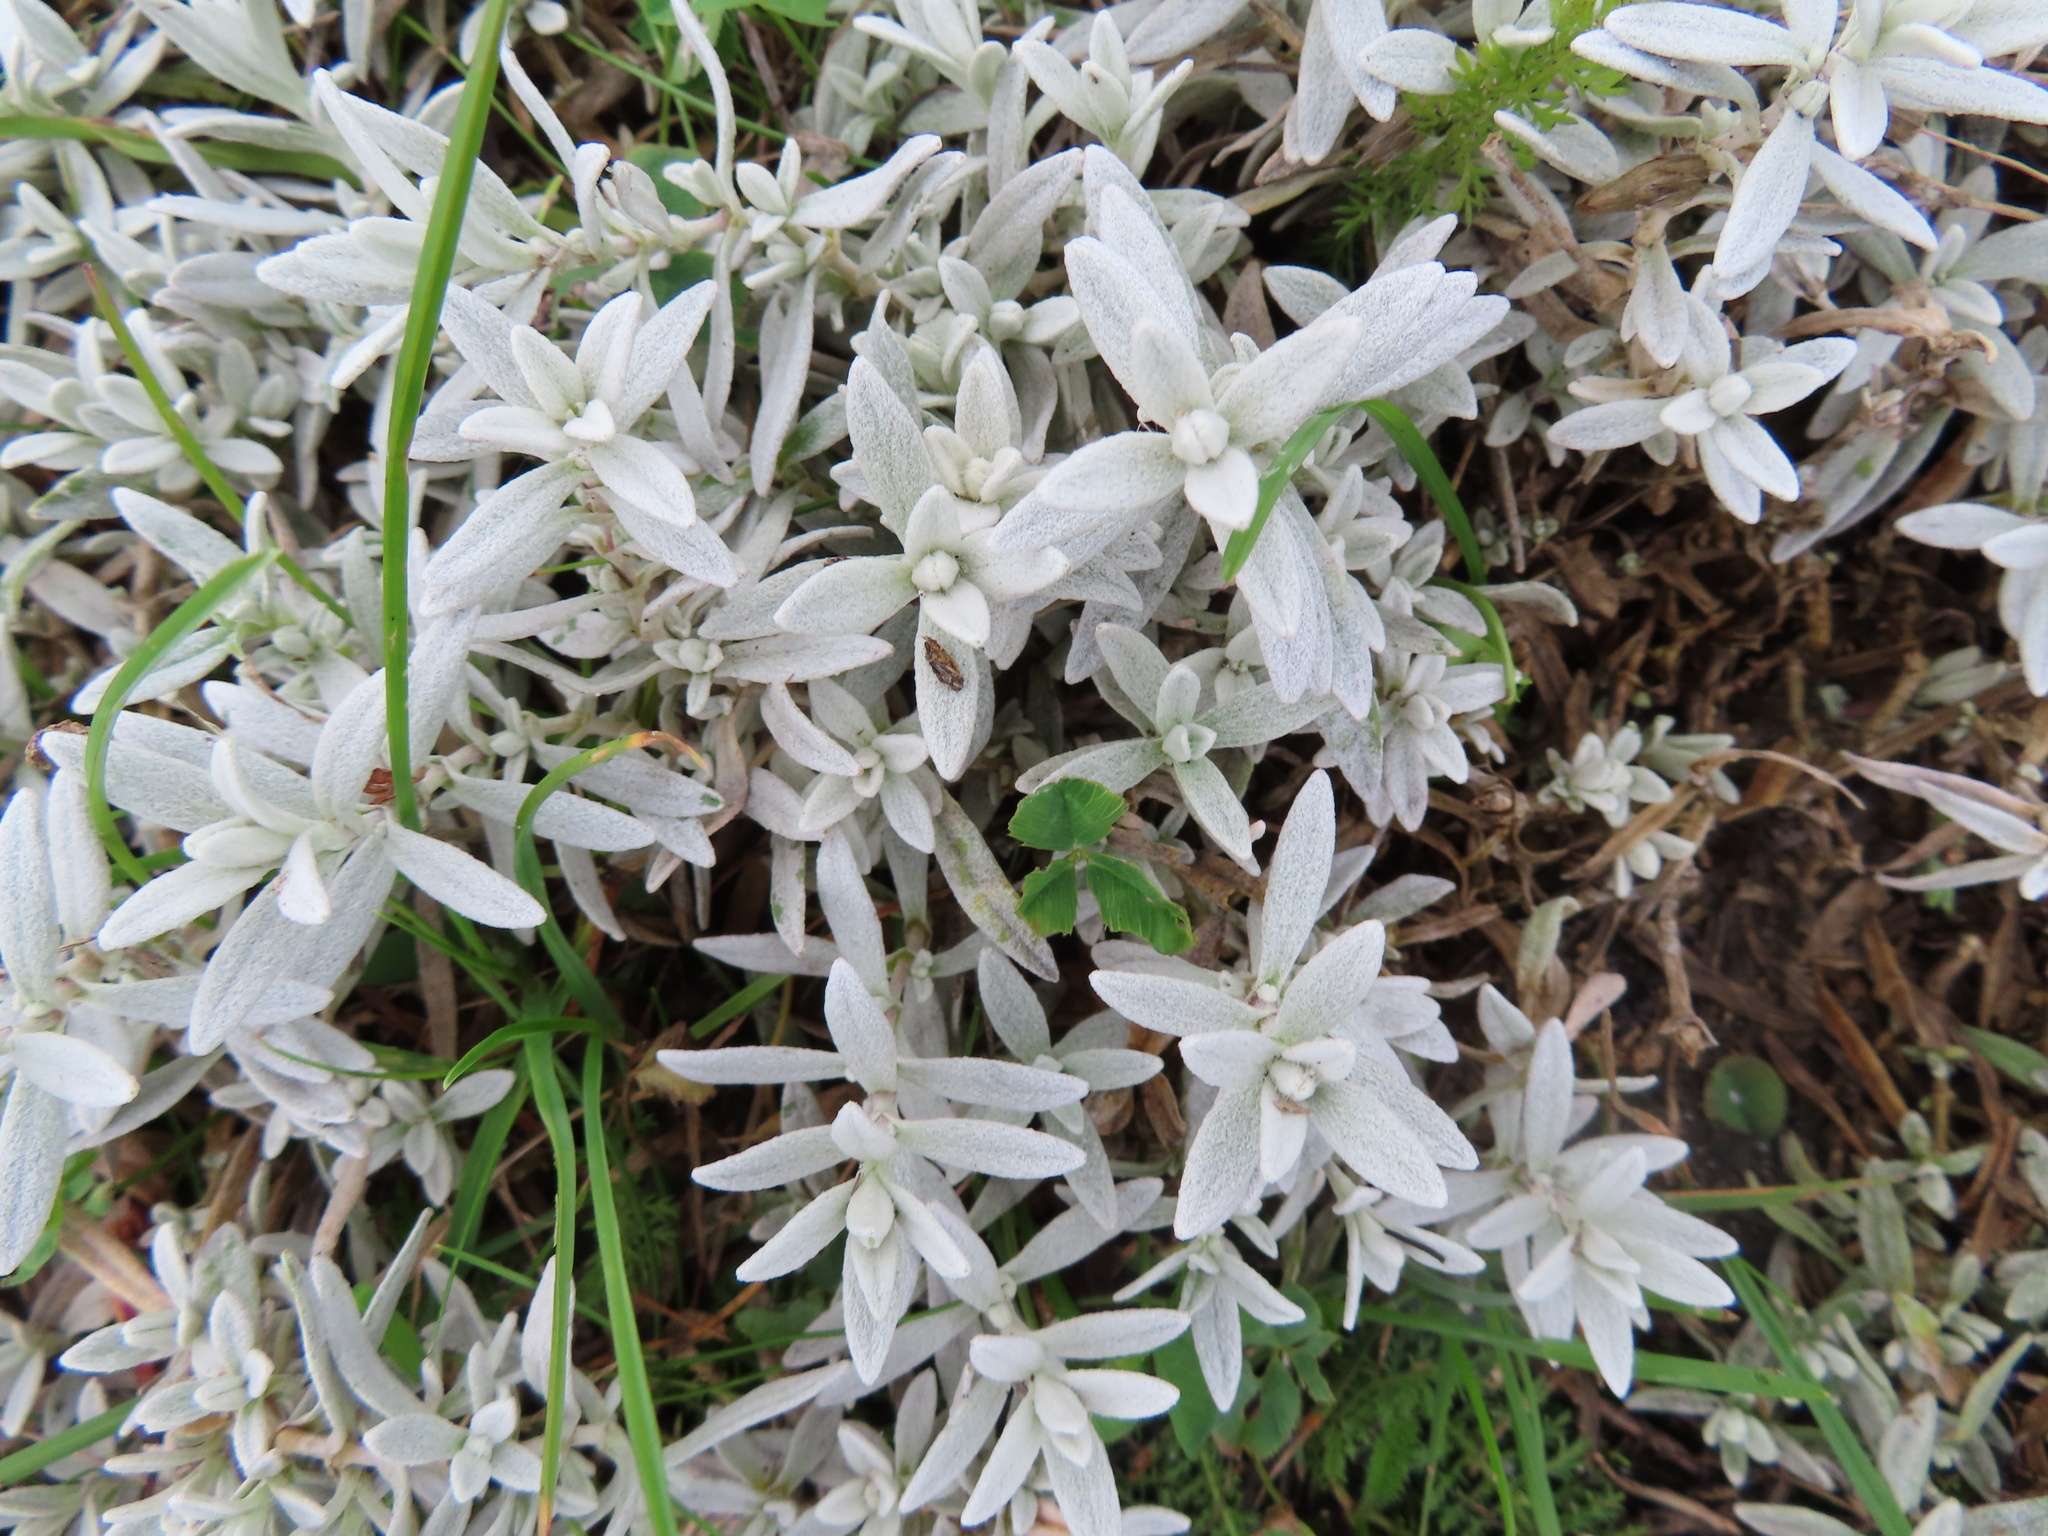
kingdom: Plantae
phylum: Tracheophyta
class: Magnoliopsida
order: Caryophyllales
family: Caryophyllaceae
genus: Cerastium
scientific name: Cerastium tomentosum
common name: Snow-in-summer
